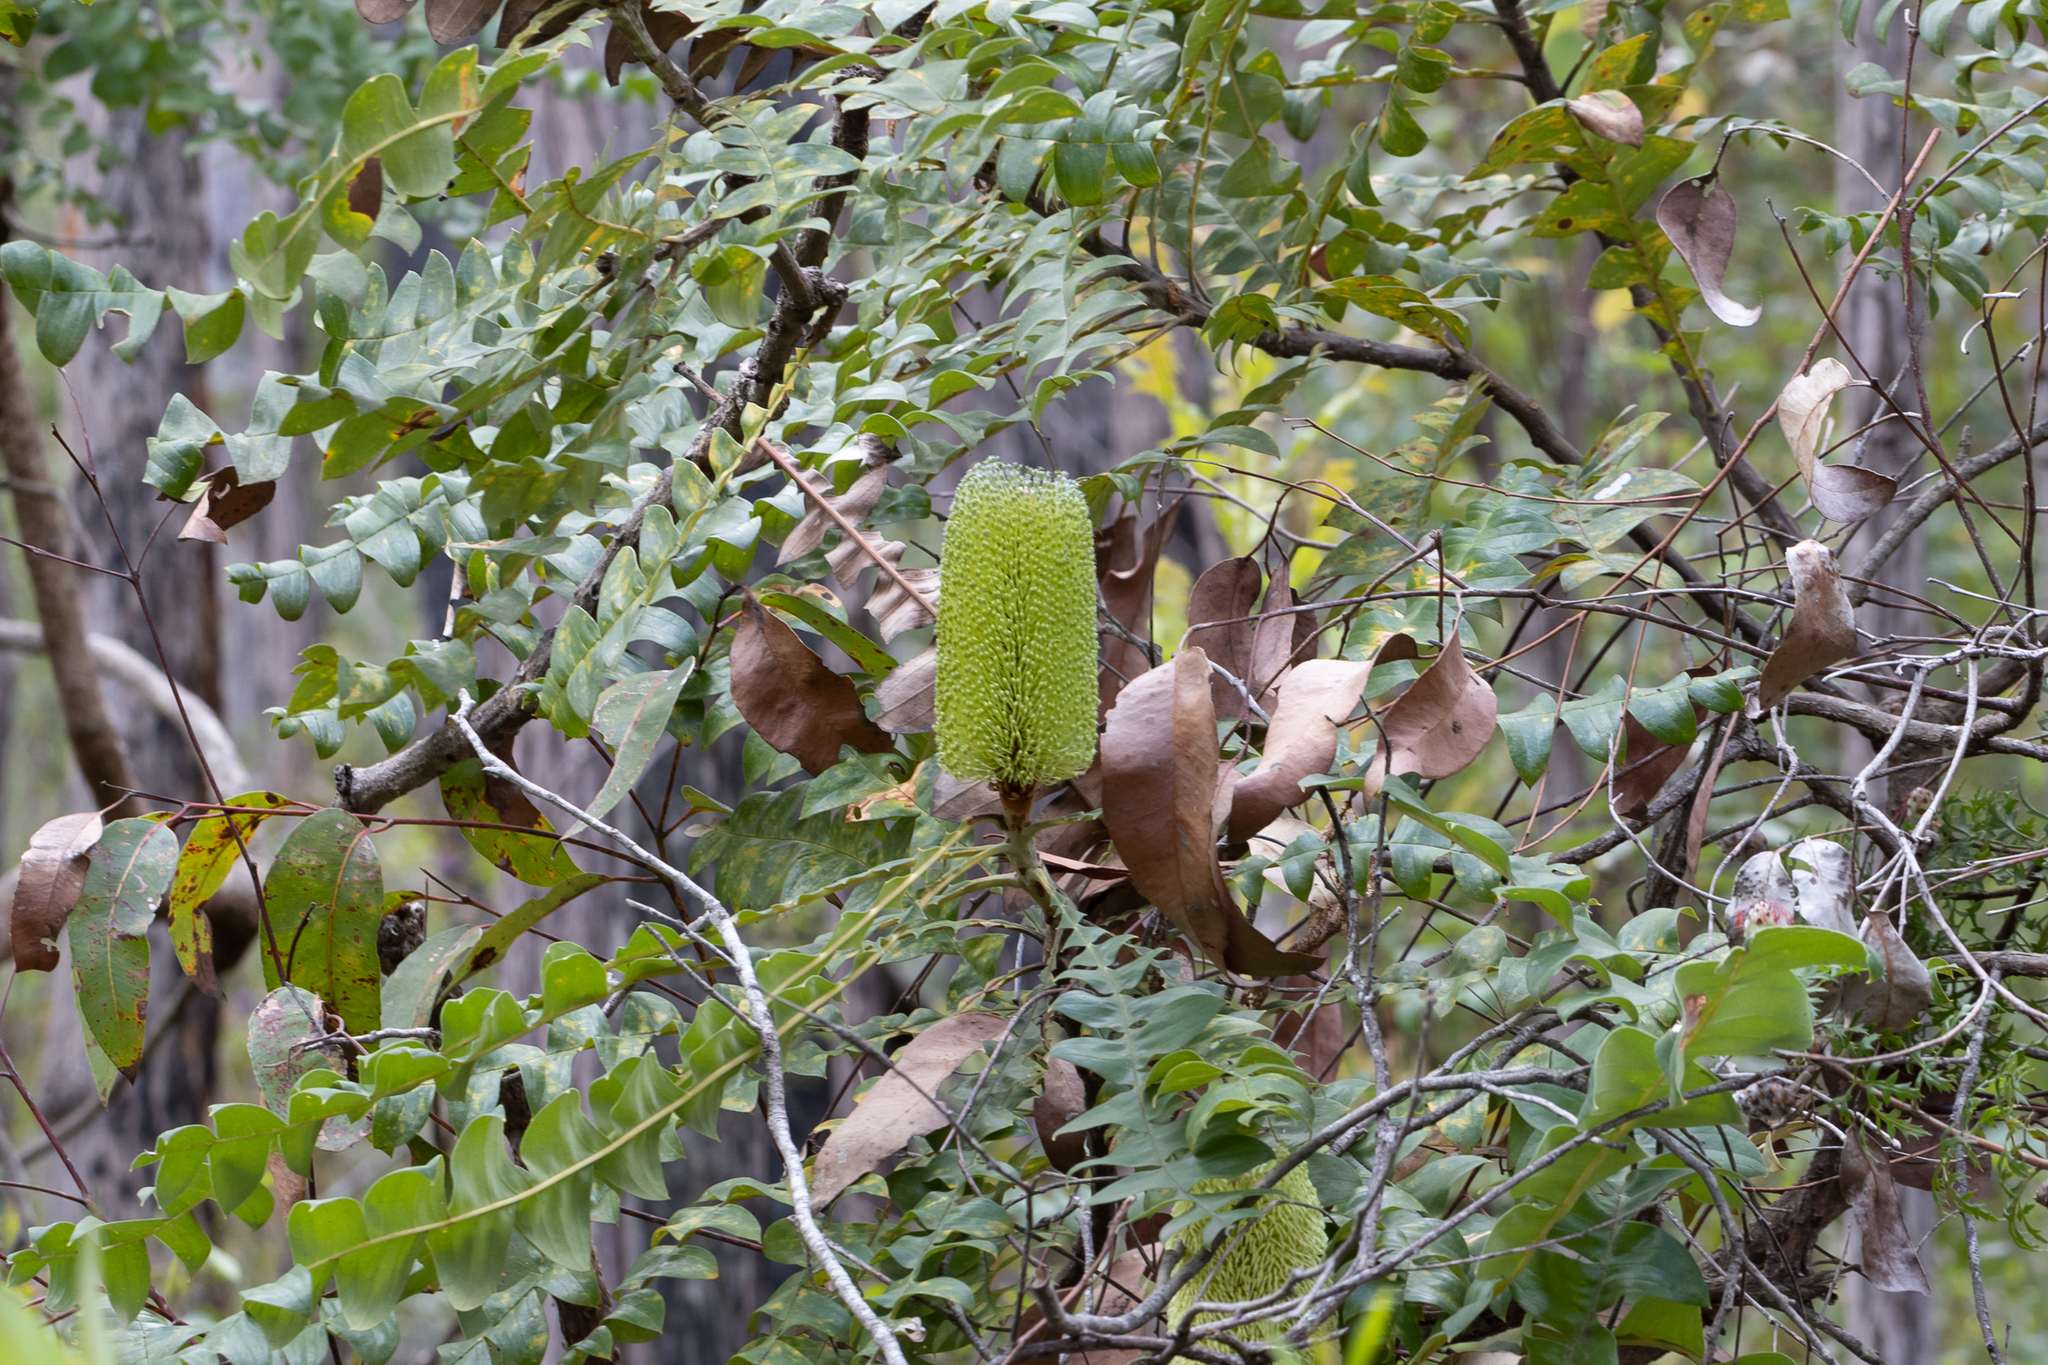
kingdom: Plantae
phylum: Tracheophyta
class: Magnoliopsida
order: Proteales
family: Proteaceae
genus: Banksia
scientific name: Banksia grandis
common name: Giant banksia
